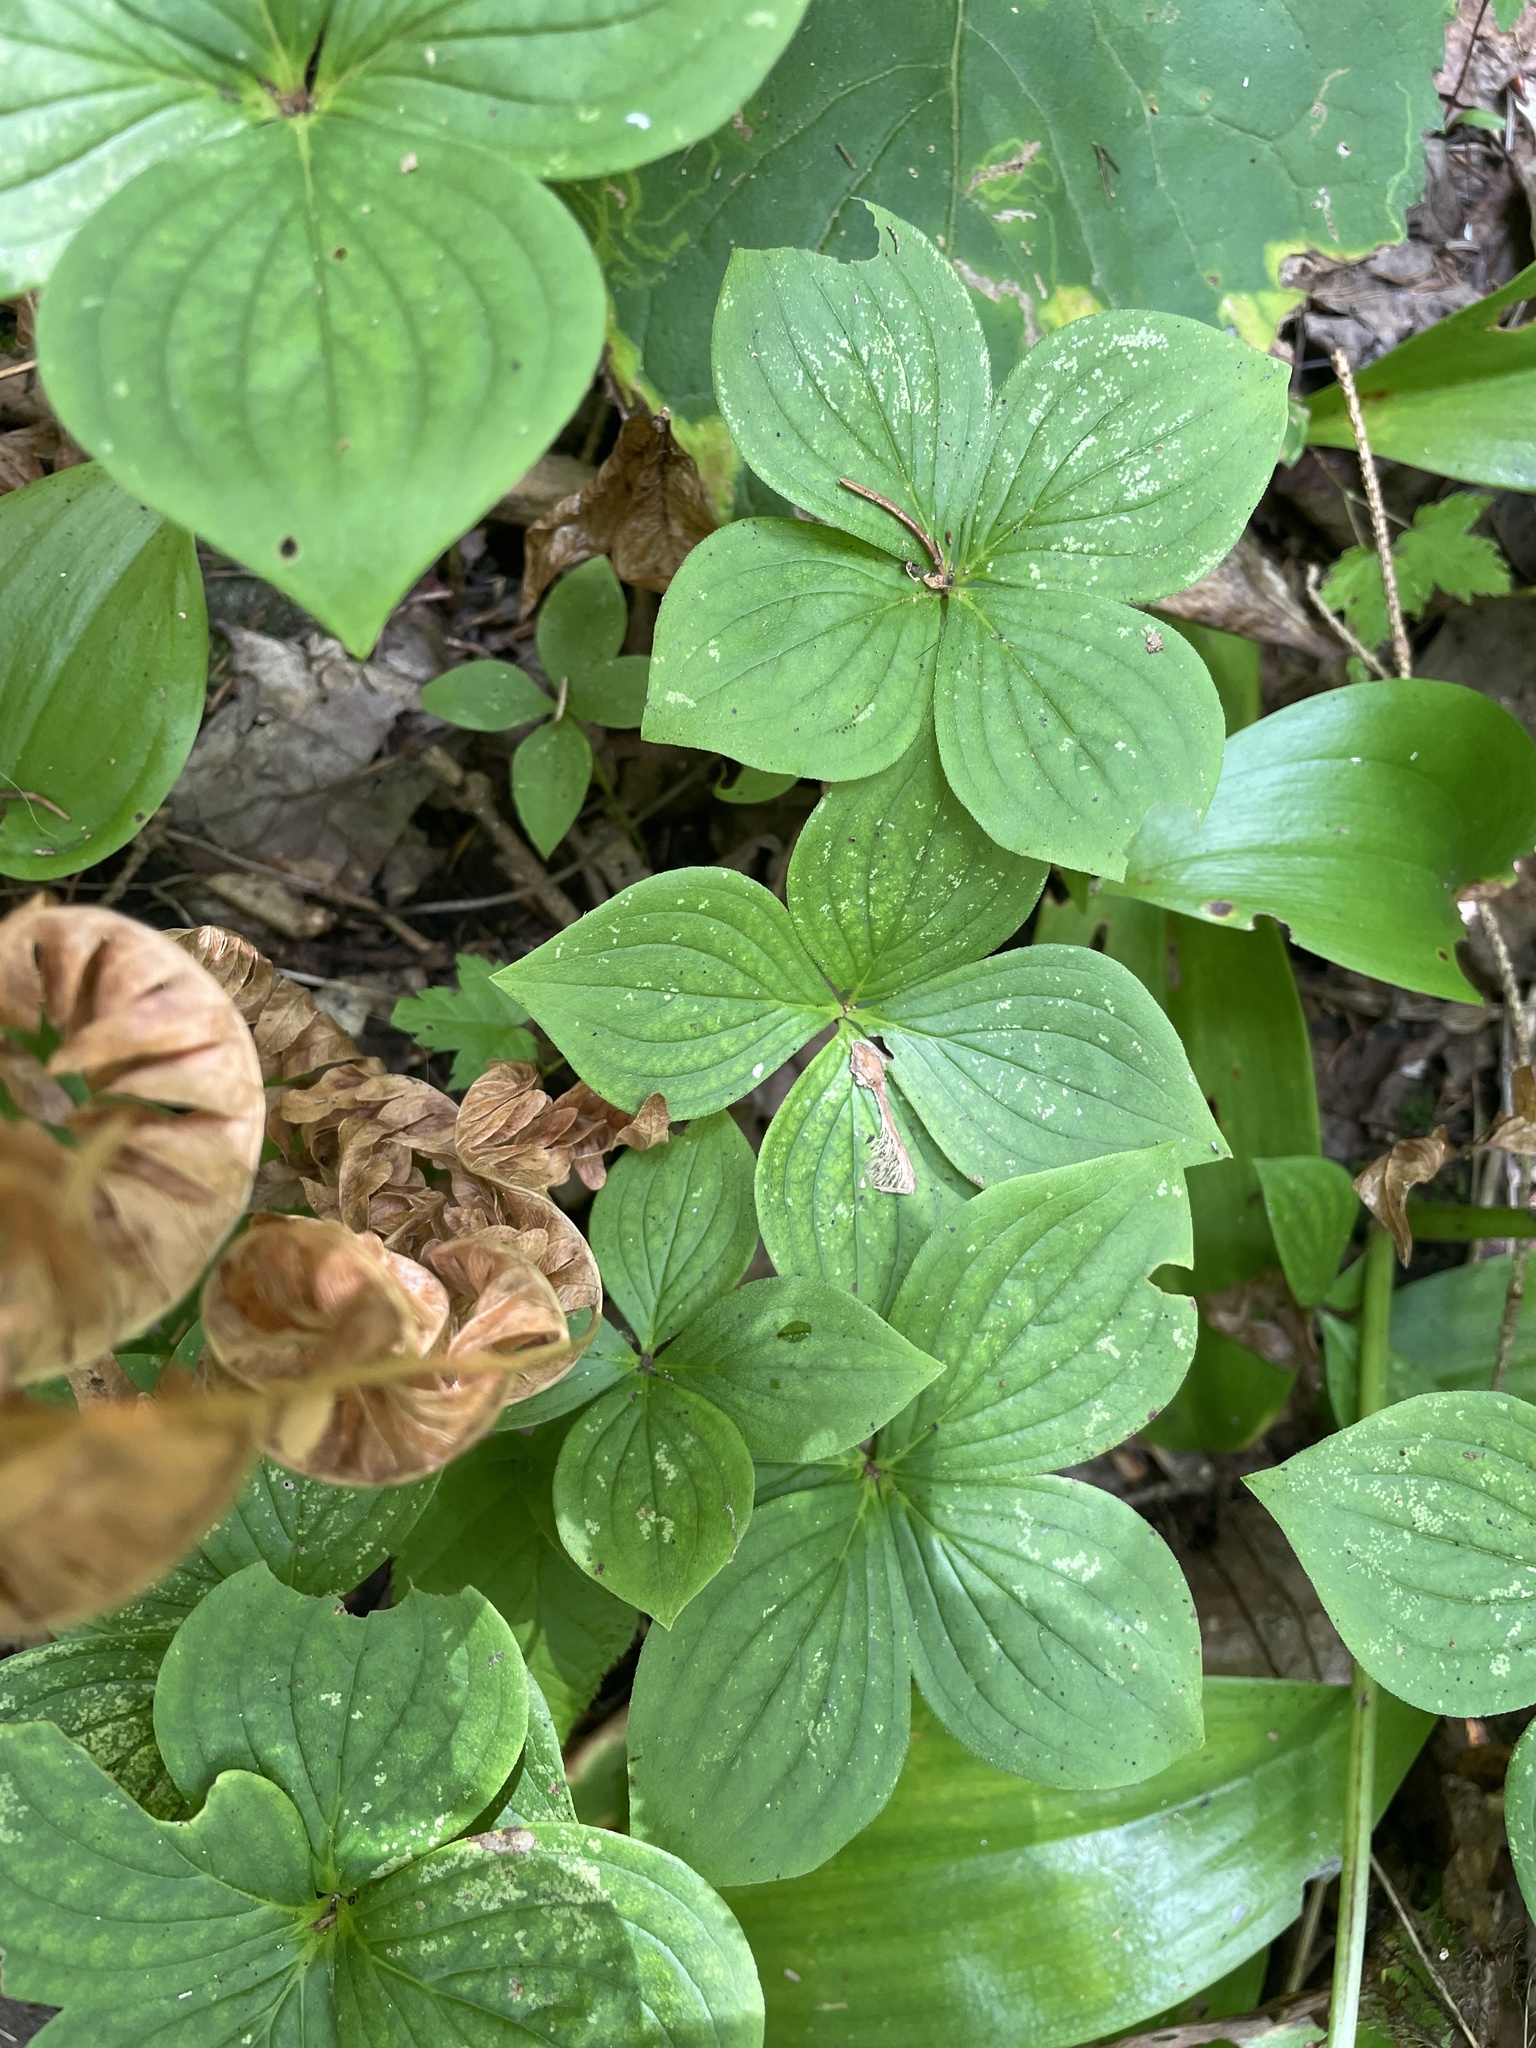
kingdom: Plantae
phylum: Tracheophyta
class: Magnoliopsida
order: Cornales
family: Cornaceae
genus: Cornus
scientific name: Cornus canadensis
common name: Creeping dogwood
